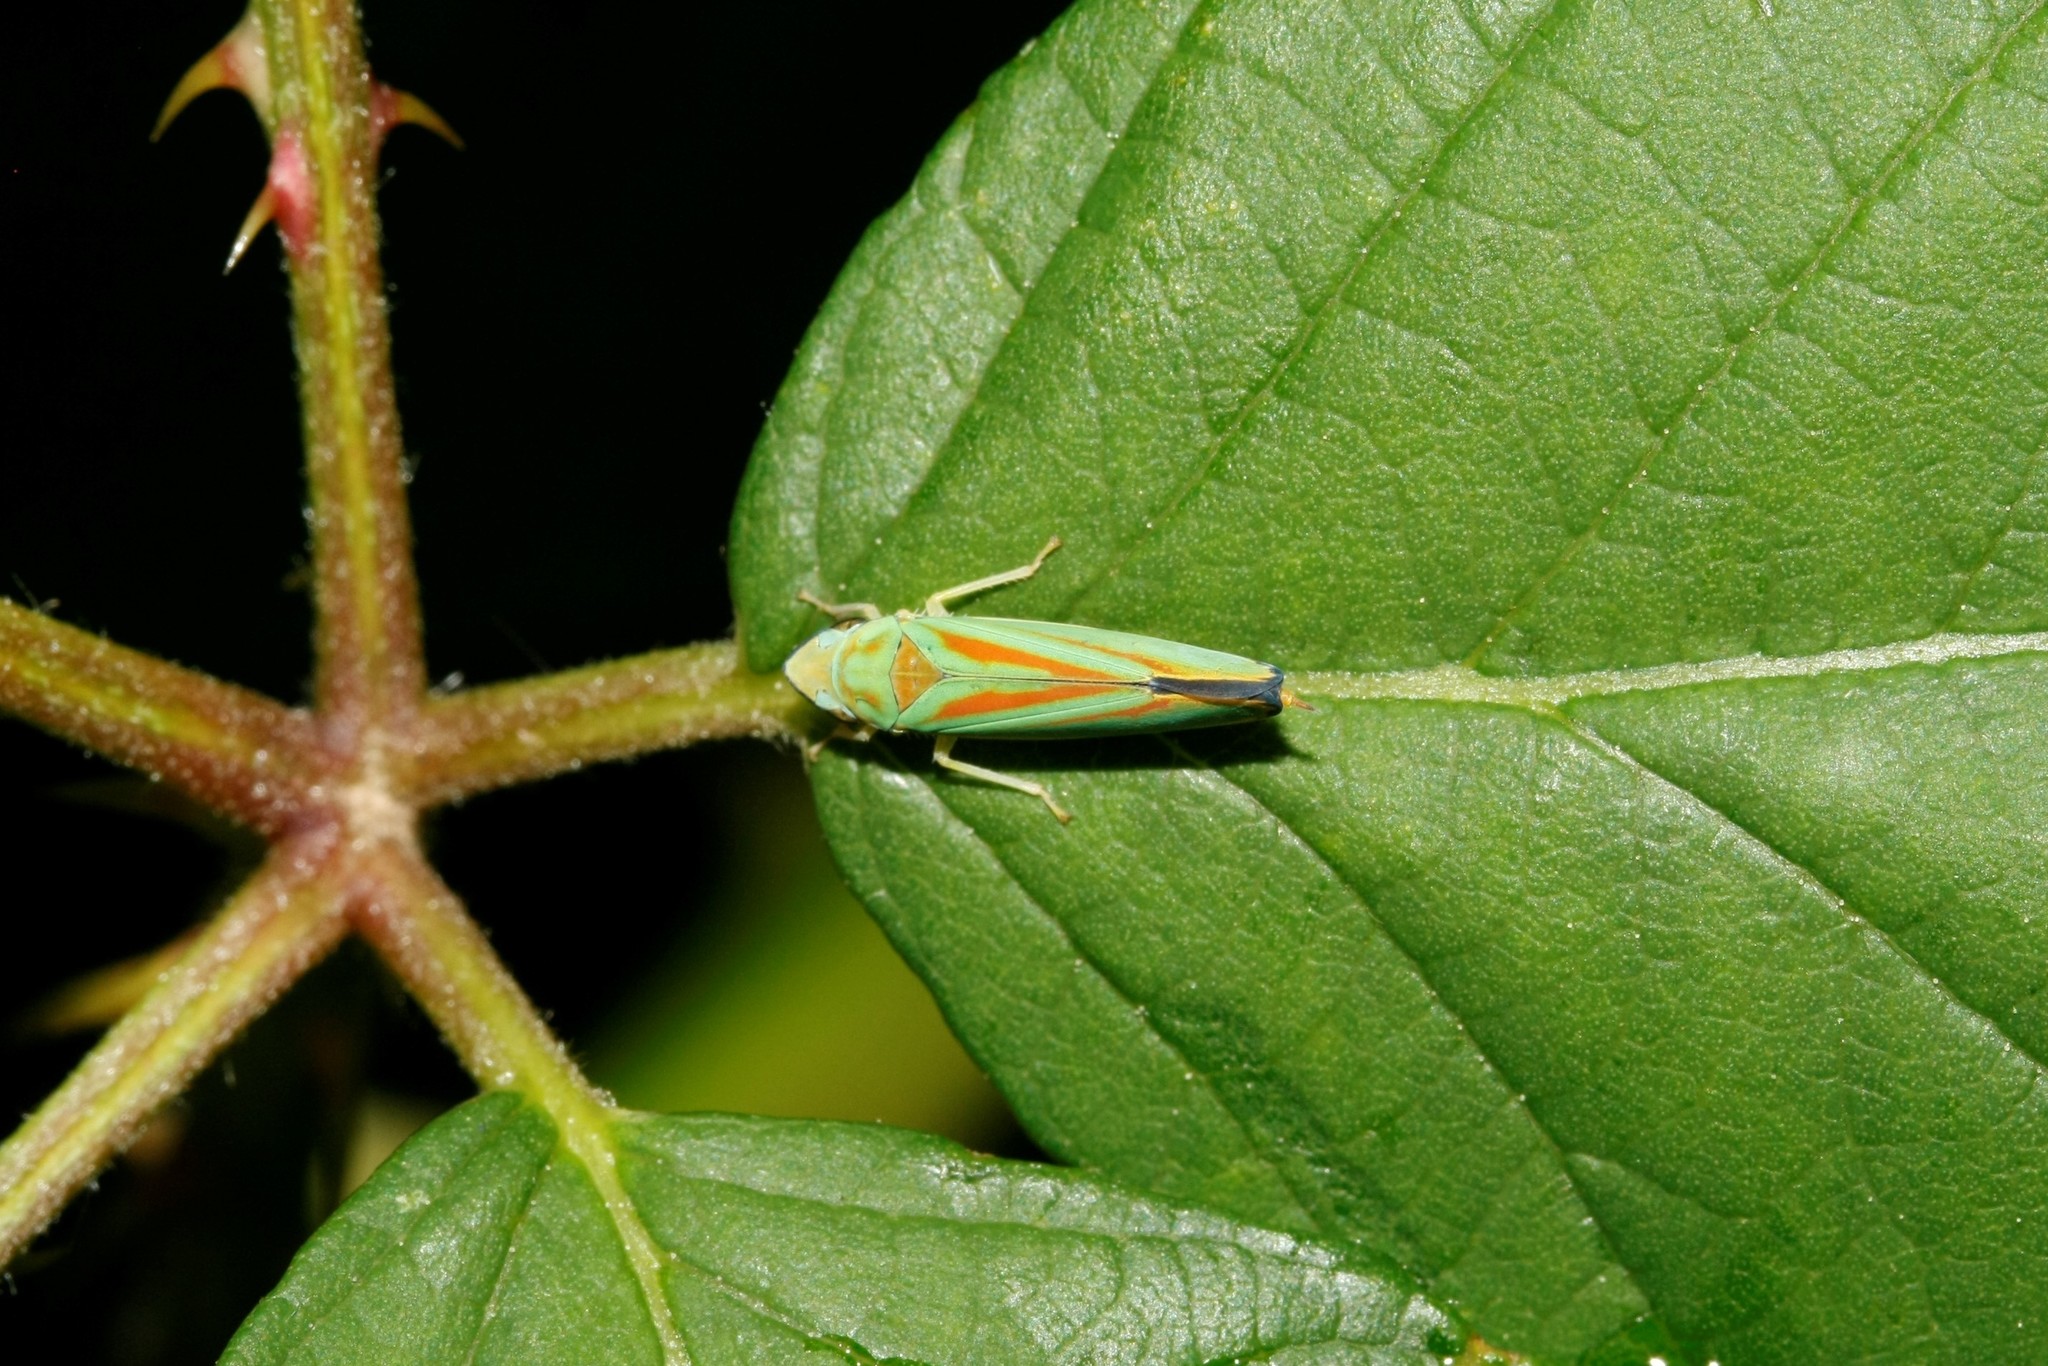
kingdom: Animalia
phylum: Arthropoda
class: Insecta
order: Hemiptera
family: Cicadellidae
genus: Graphocephala
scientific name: Graphocephala fennahi
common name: Rhododendron leafhopper
